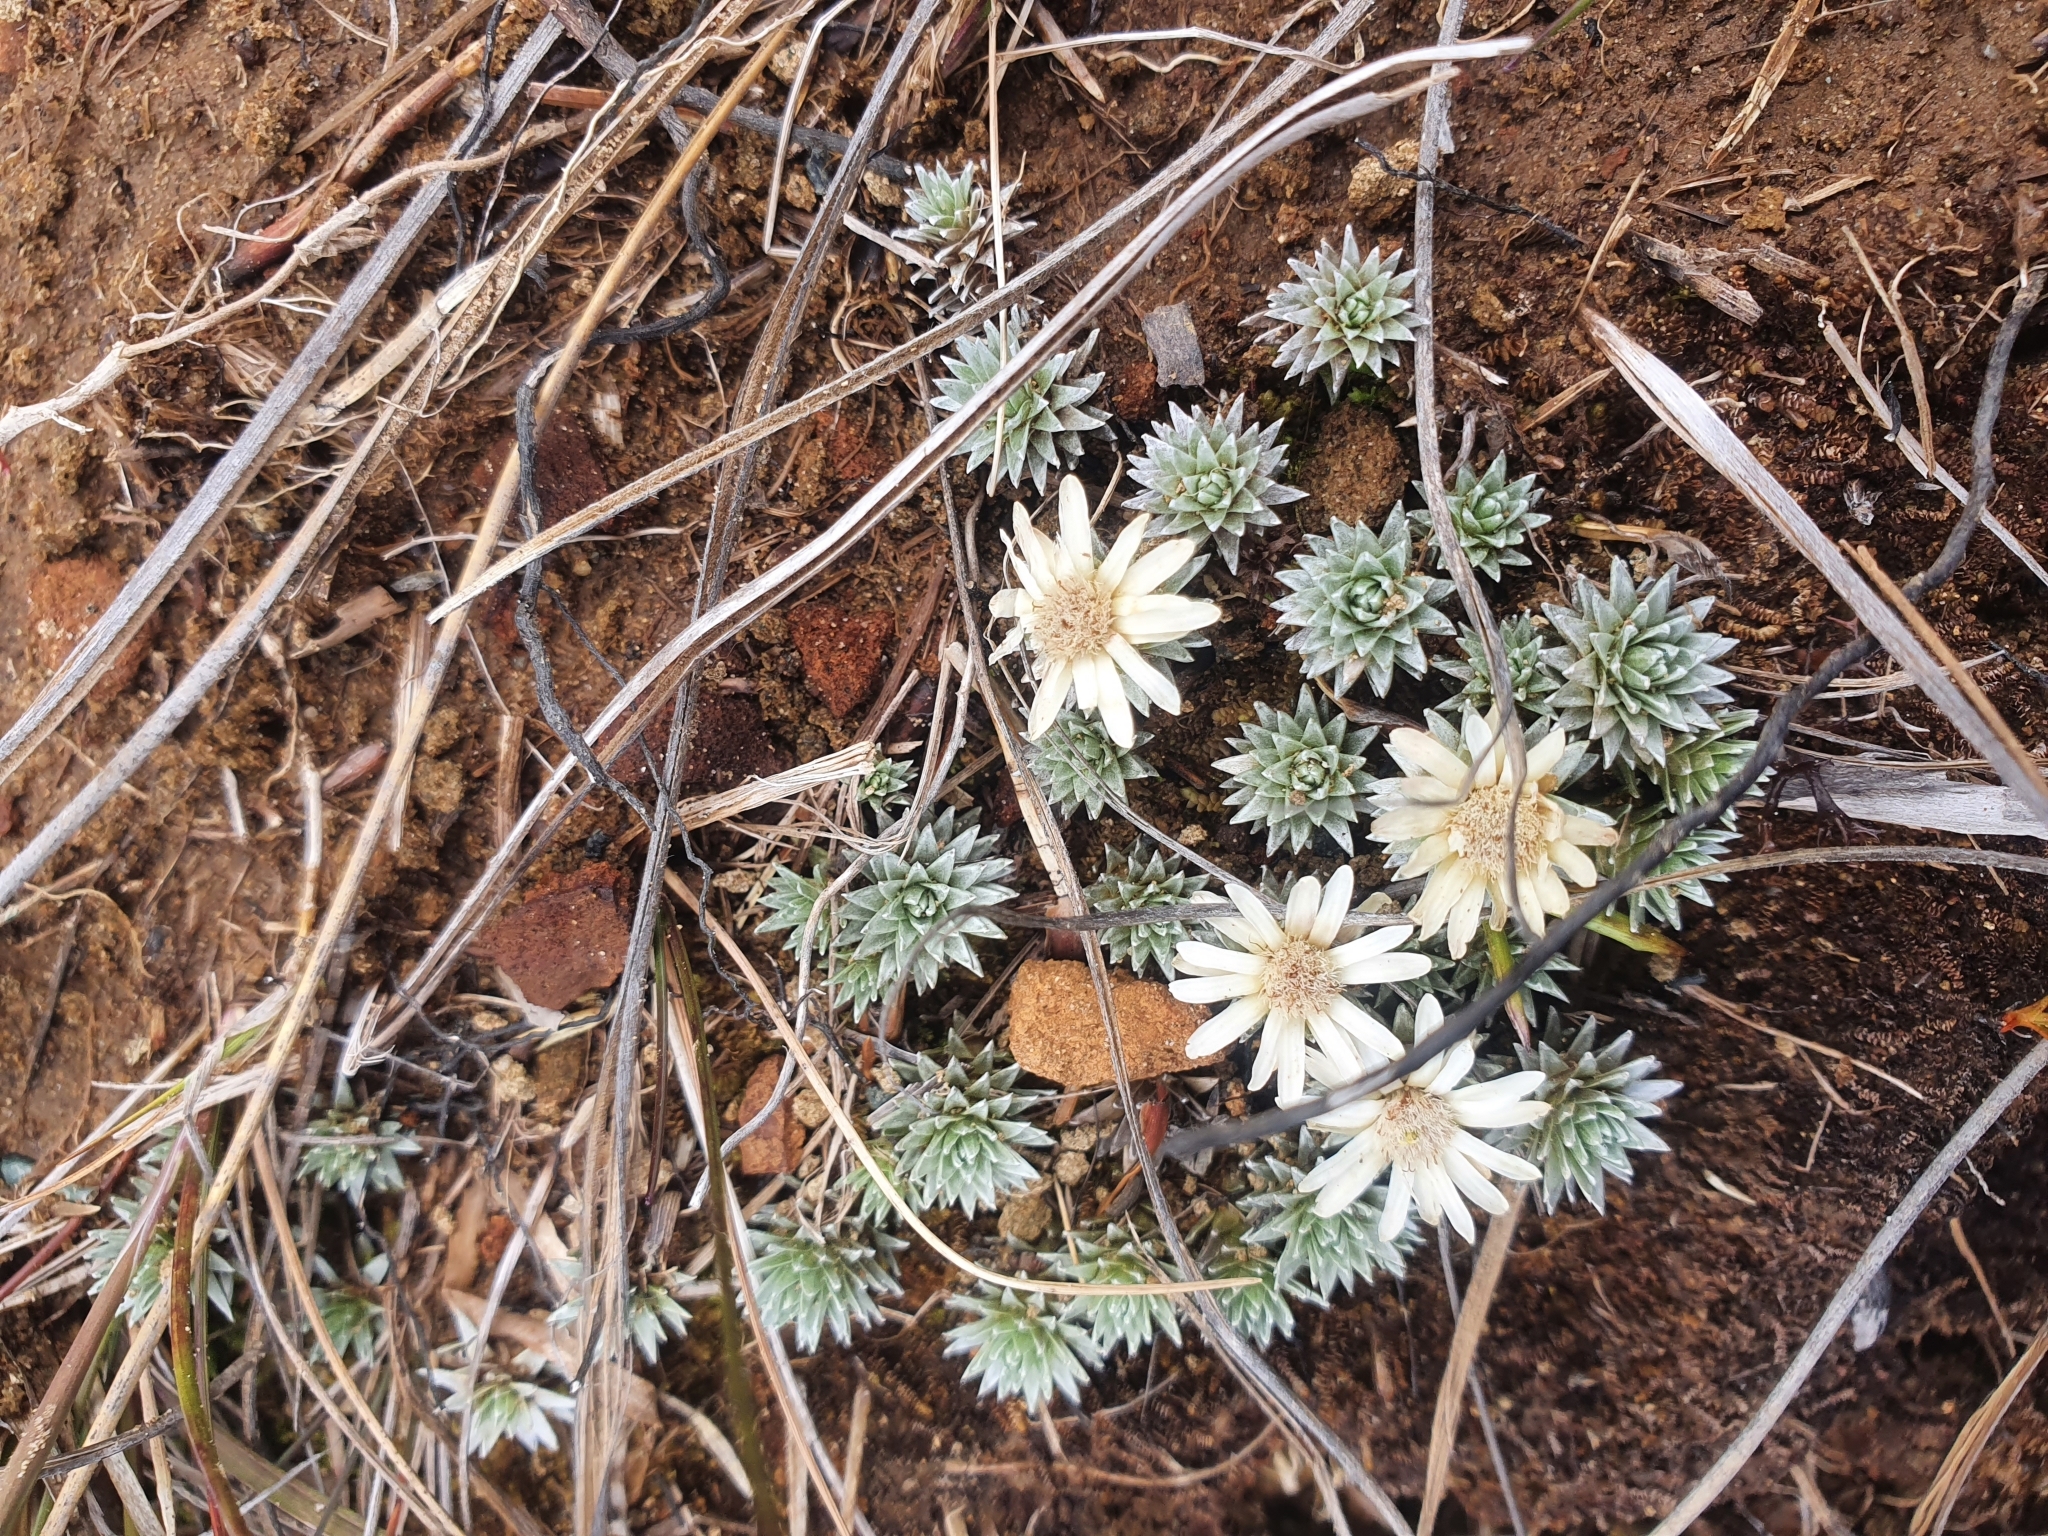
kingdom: Plantae
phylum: Tracheophyta
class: Magnoliopsida
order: Asterales
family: Asteraceae
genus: Raoulia
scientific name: Raoulia grandiflora
